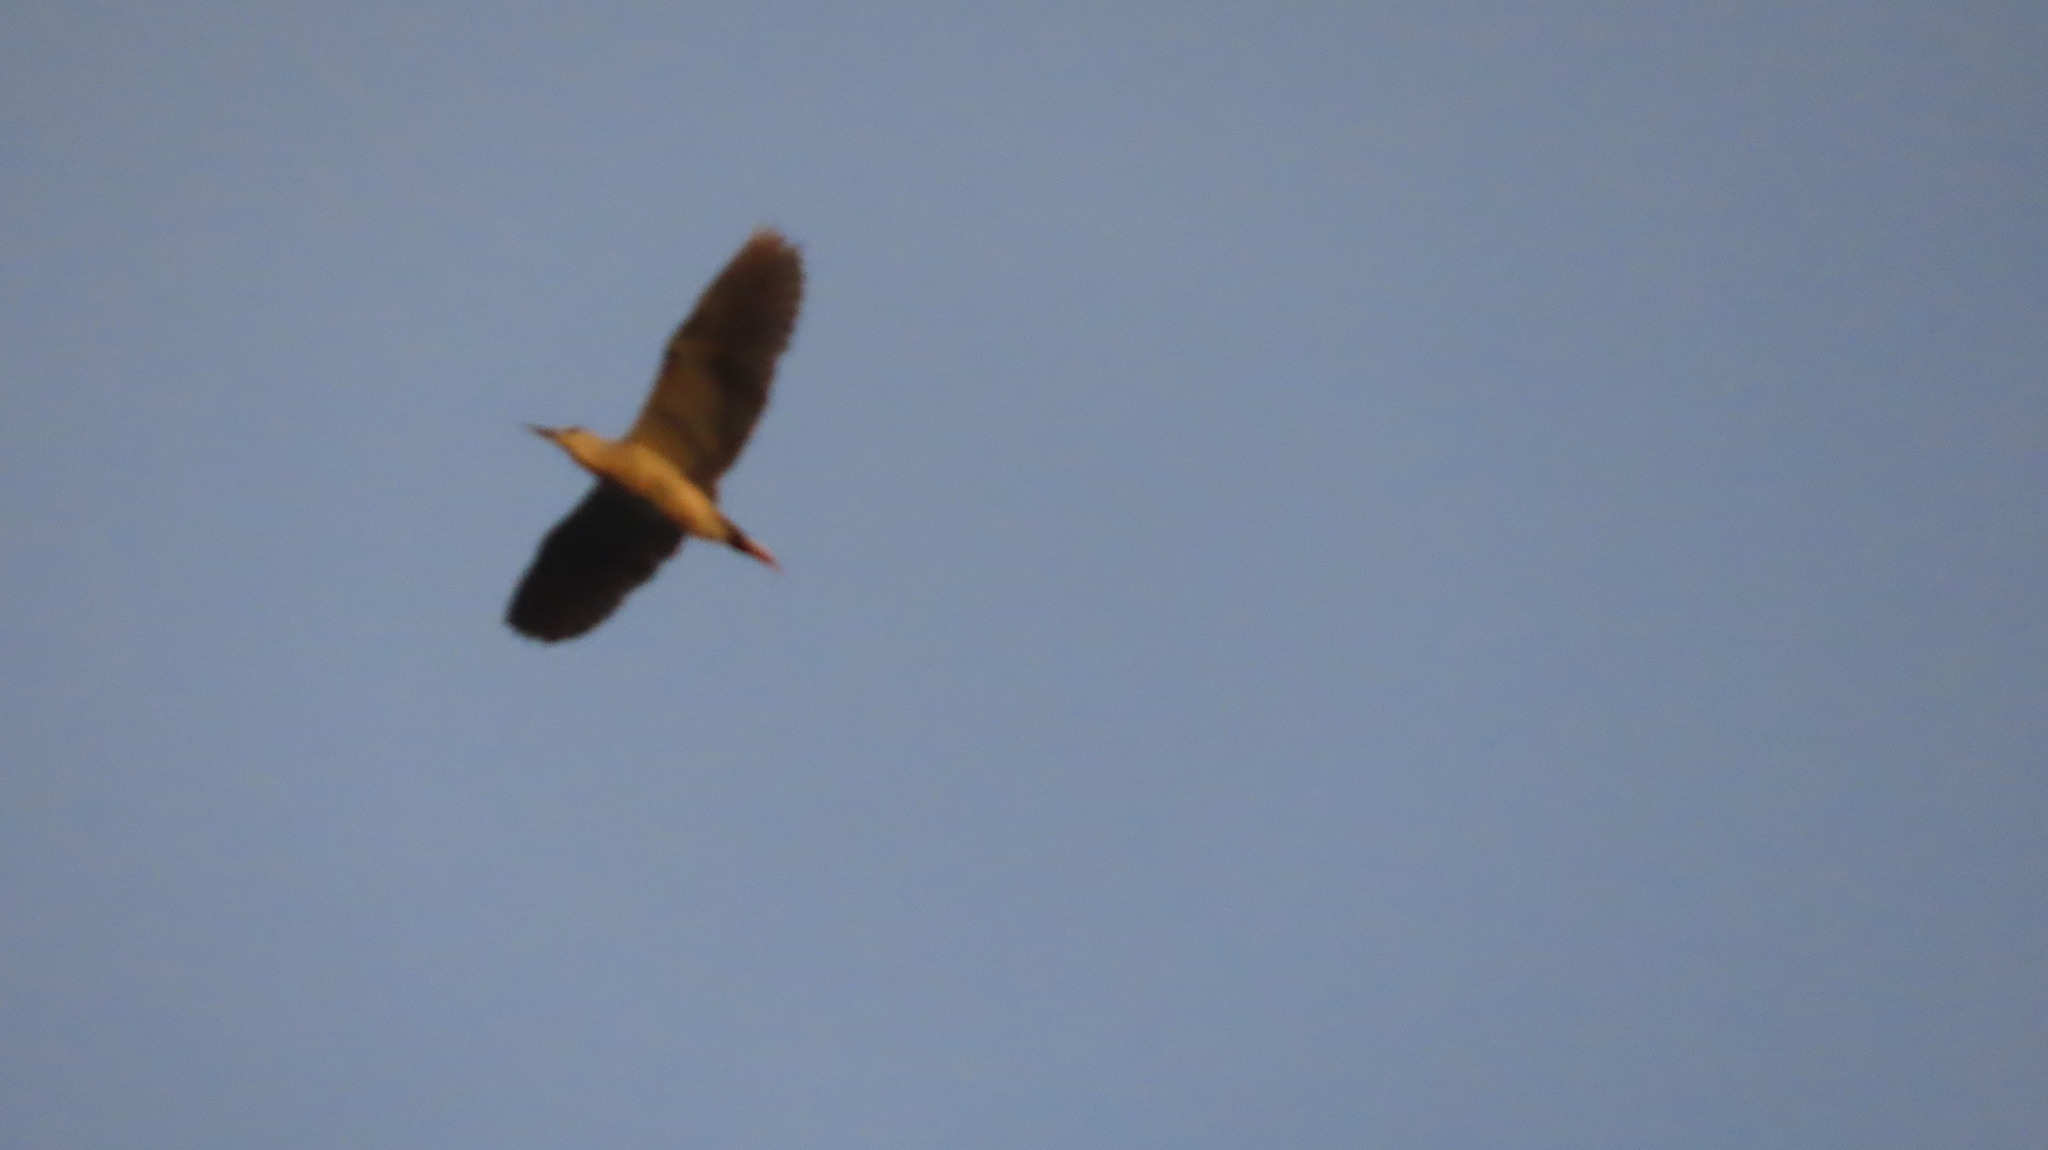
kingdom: Animalia
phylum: Chordata
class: Aves
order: Pelecaniformes
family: Ardeidae
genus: Nycticorax
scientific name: Nycticorax nycticorax
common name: Black-crowned night heron
